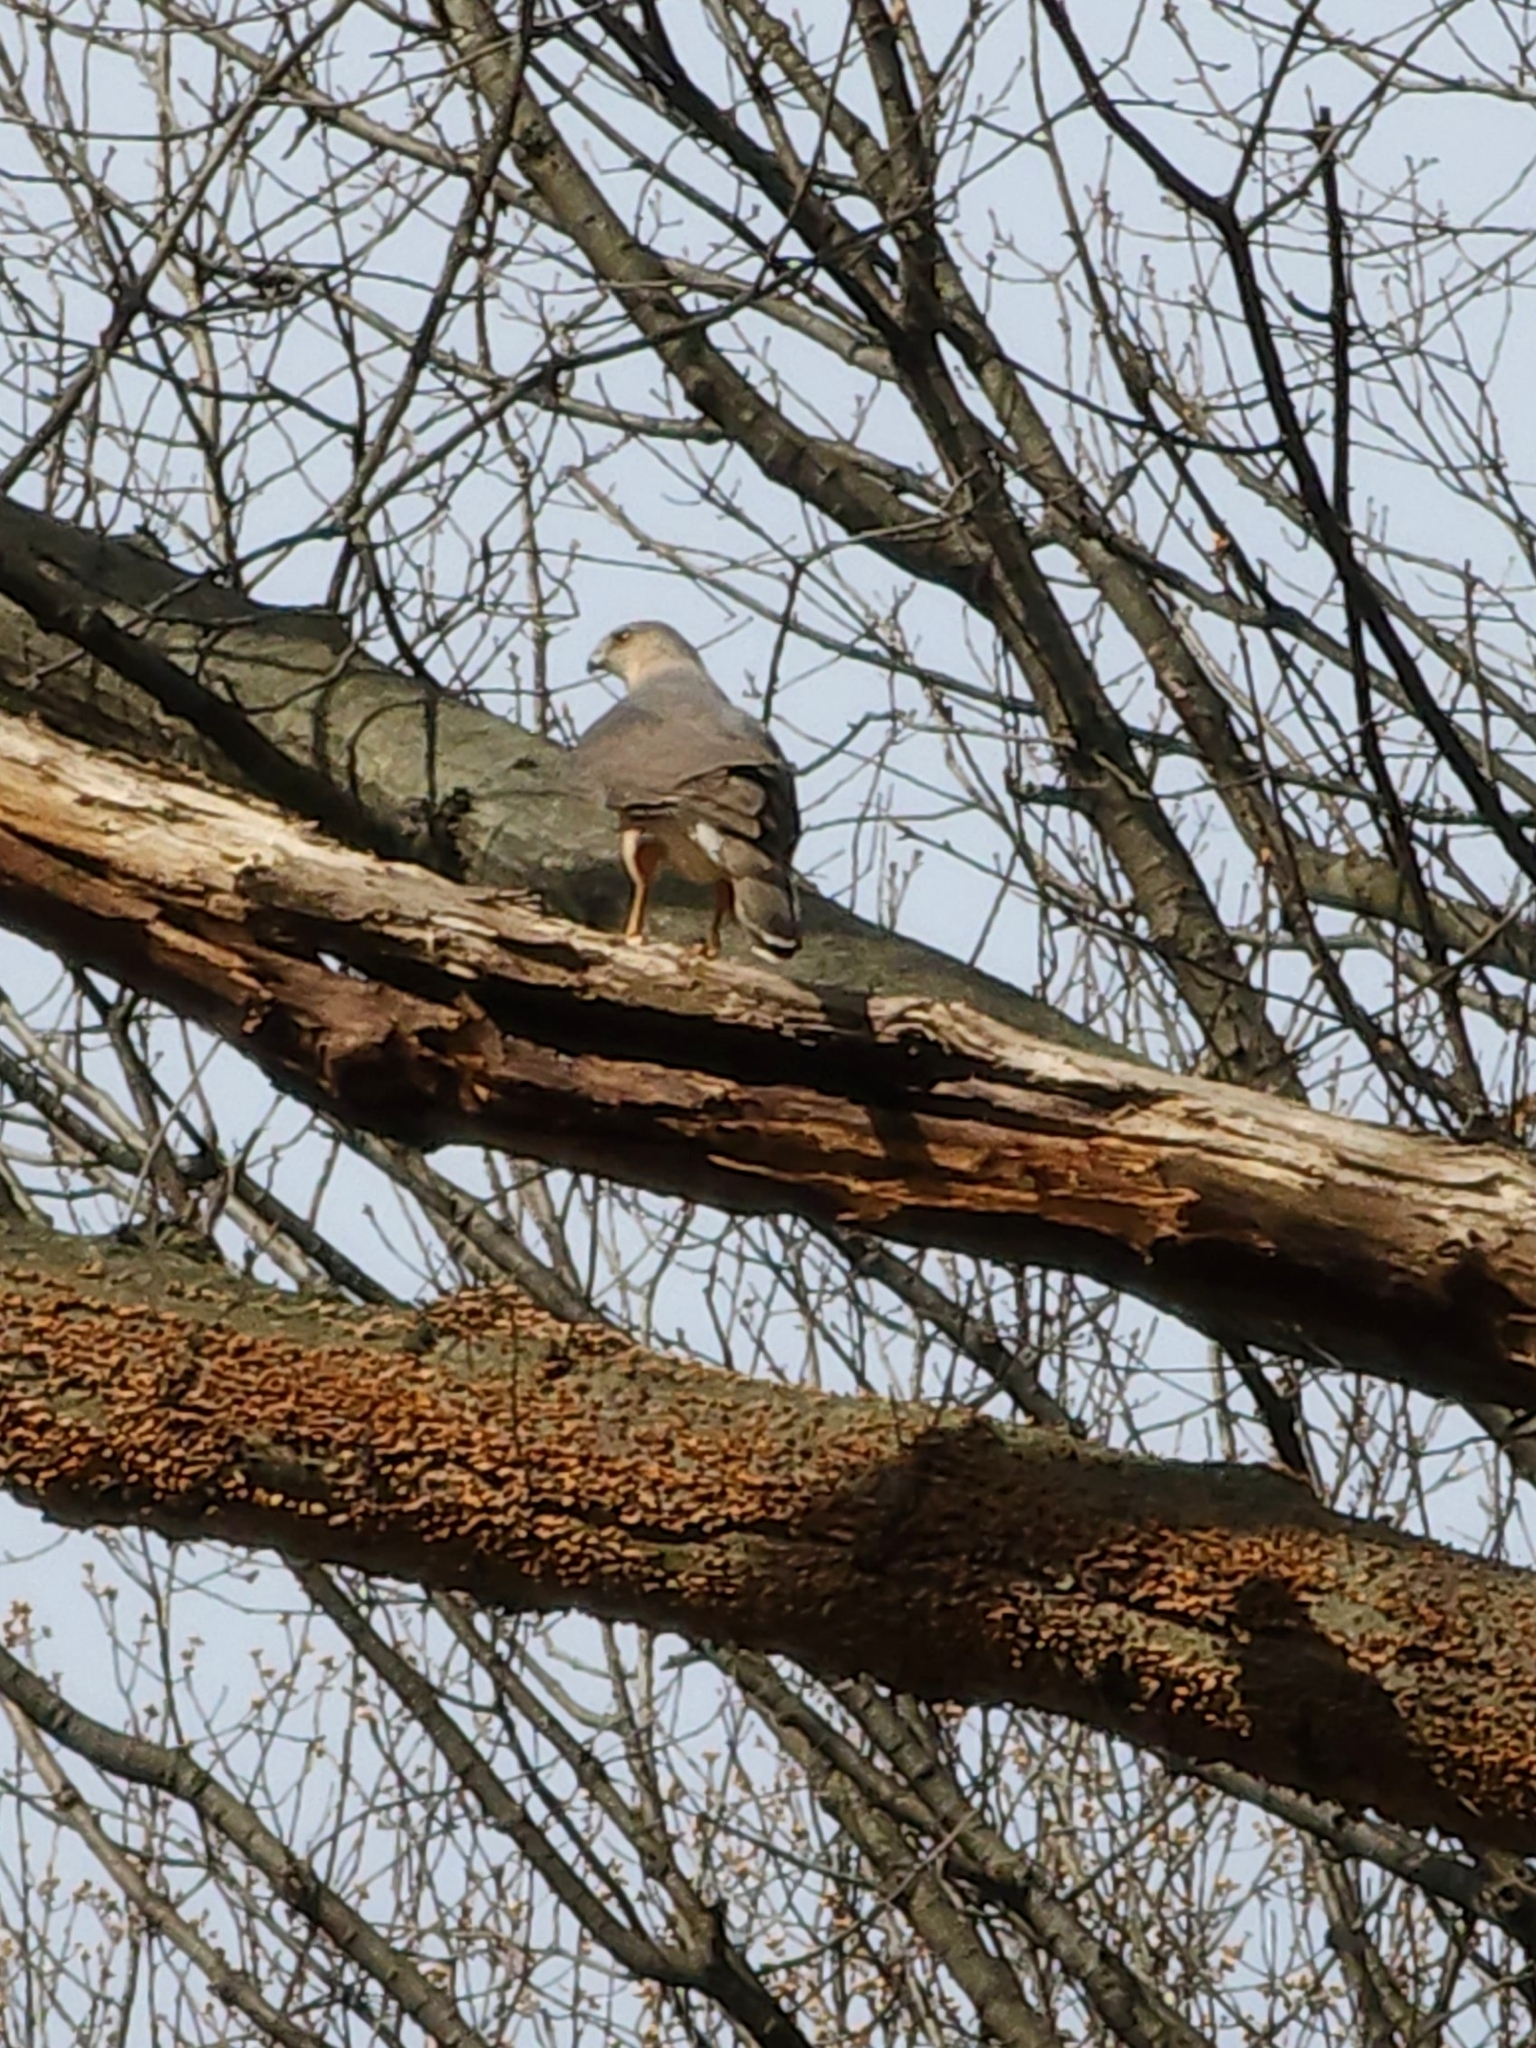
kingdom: Animalia
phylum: Chordata
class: Aves
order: Accipitriformes
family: Accipitridae
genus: Accipiter
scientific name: Accipiter cooperii
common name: Cooper's hawk
